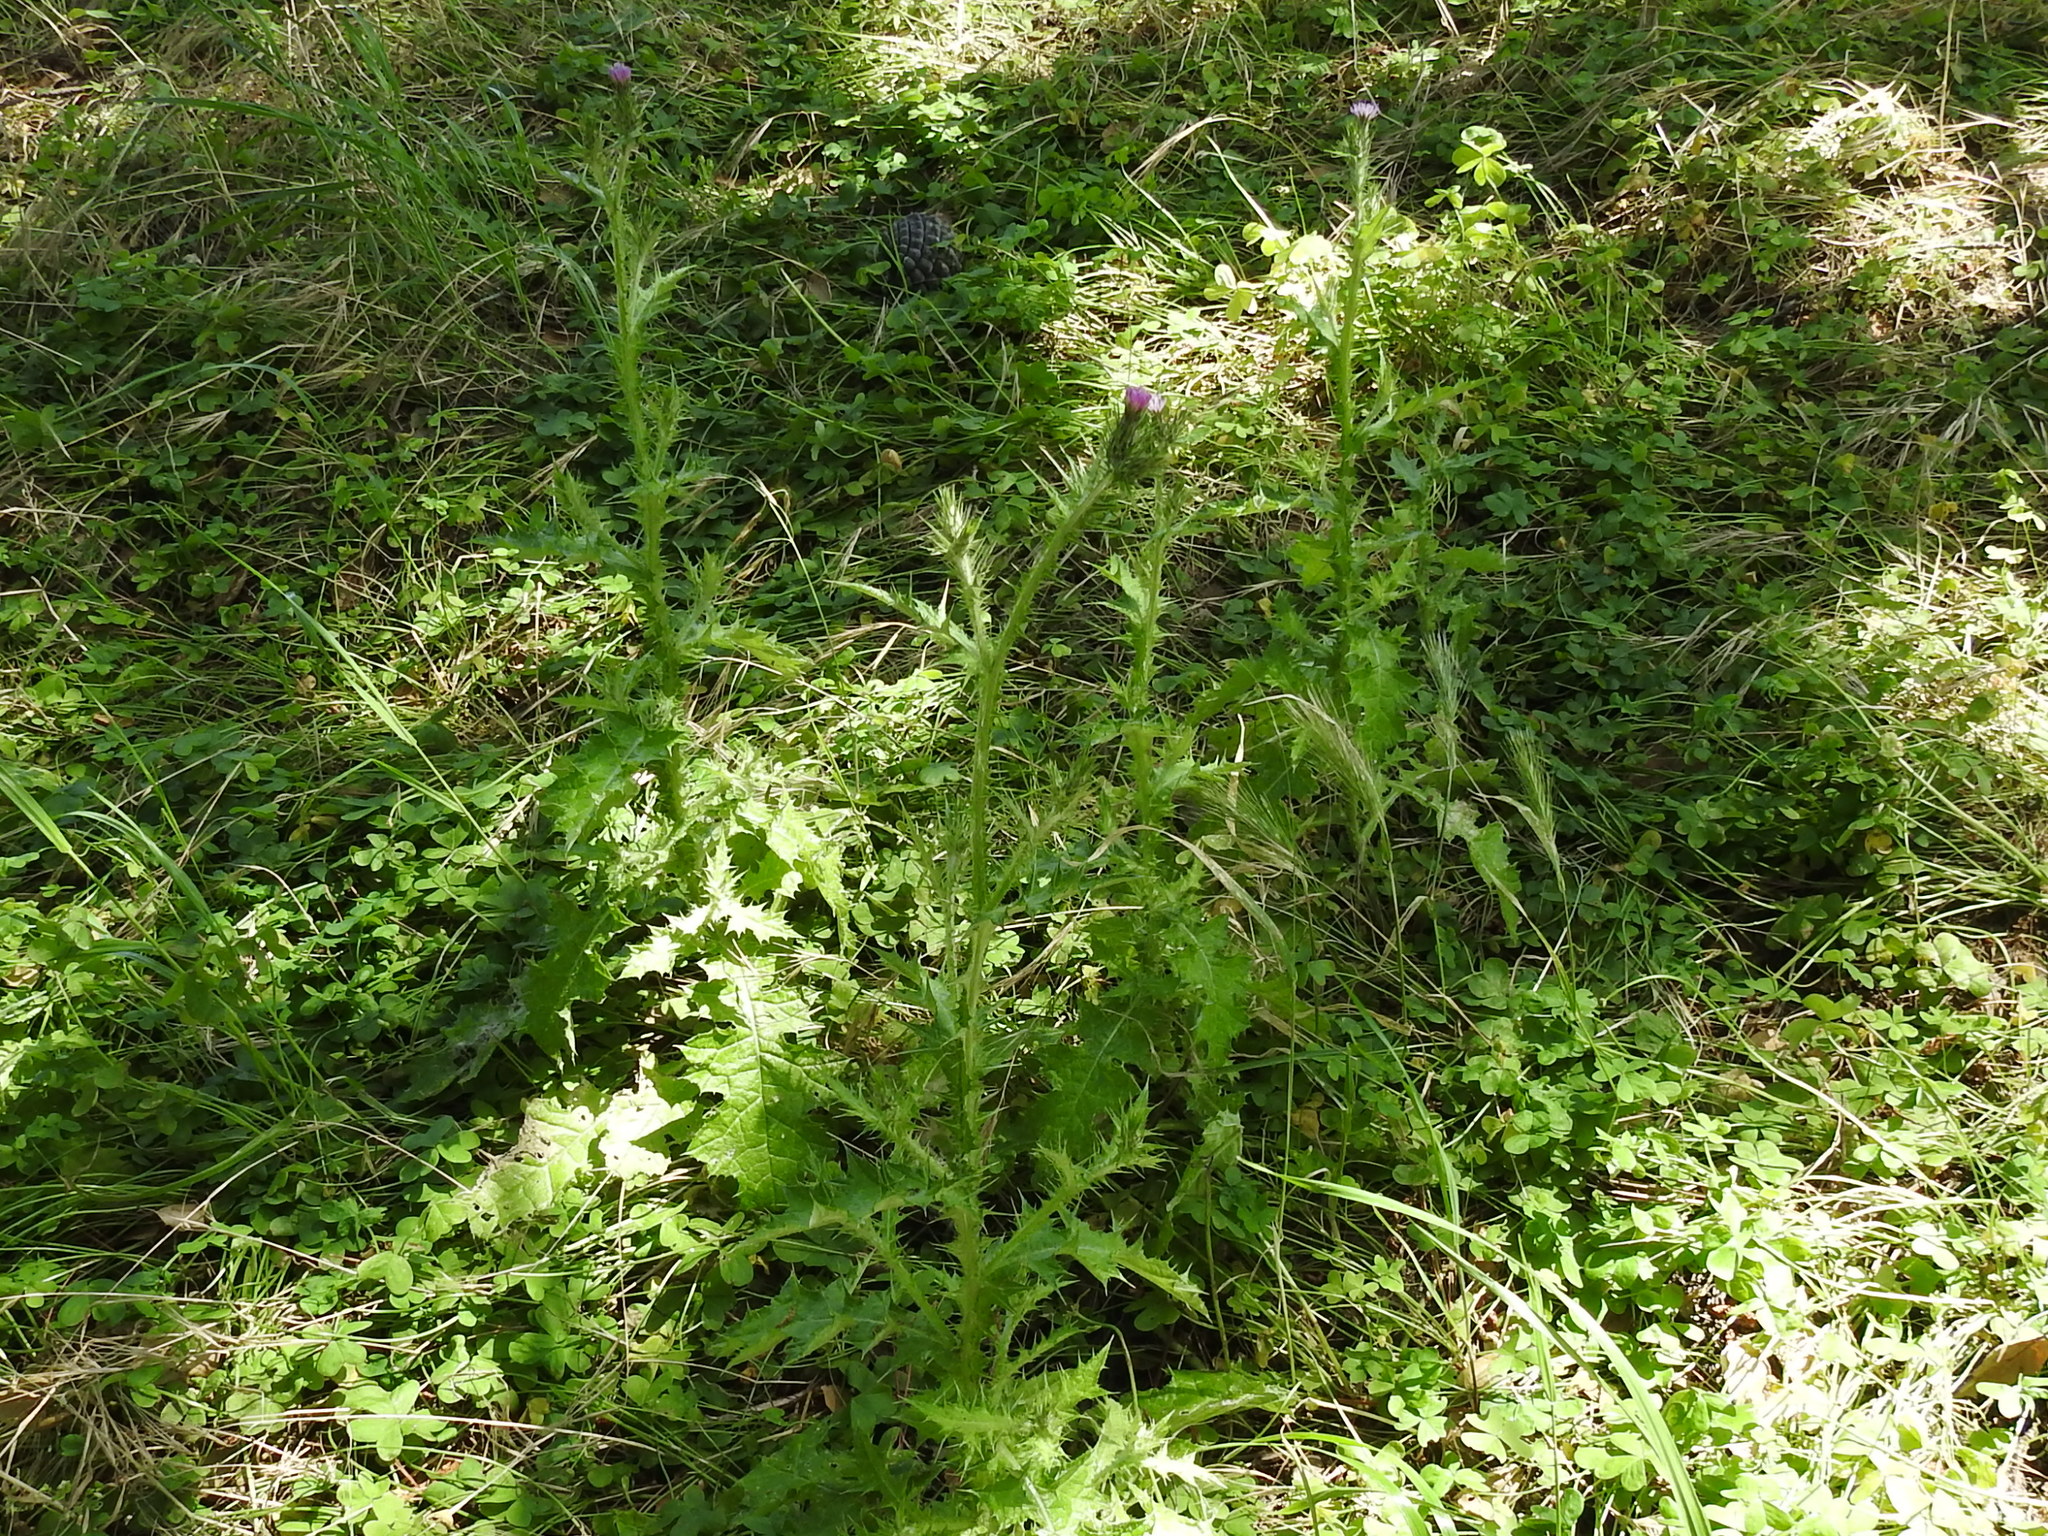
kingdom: Plantae
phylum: Tracheophyta
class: Magnoliopsida
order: Asterales
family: Asteraceae
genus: Carduus
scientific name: Carduus pycnocephalus
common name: Plymouth thistle
